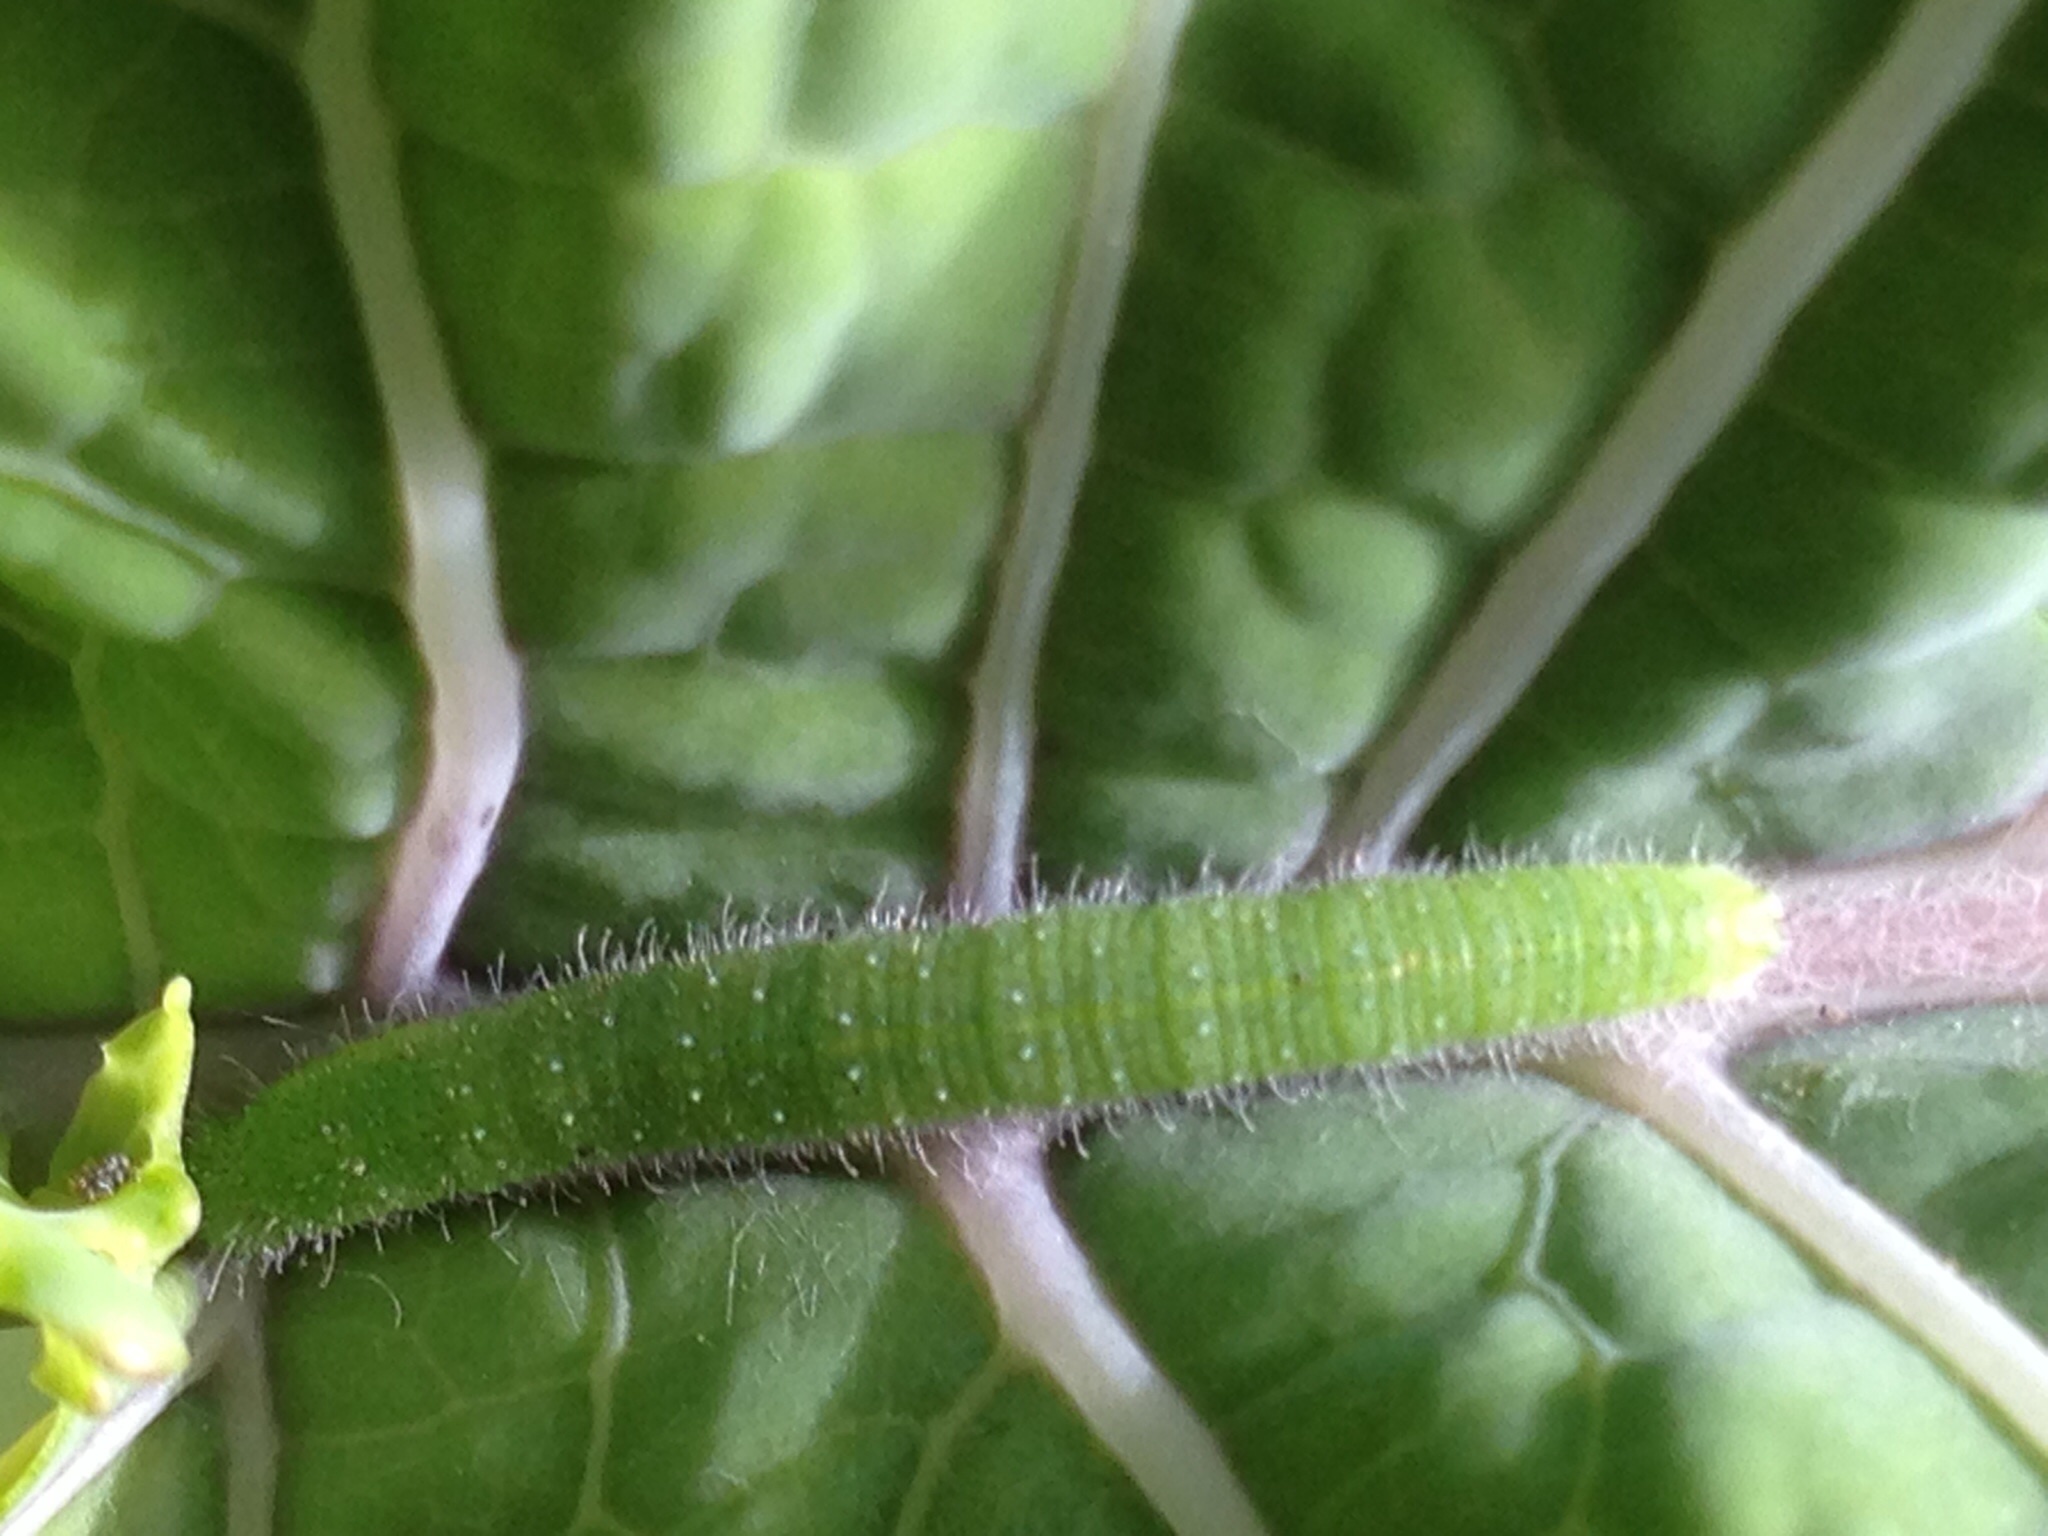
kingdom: Animalia
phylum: Arthropoda
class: Insecta
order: Lepidoptera
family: Pieridae
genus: Pieris
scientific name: Pieris rapae
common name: Small white
